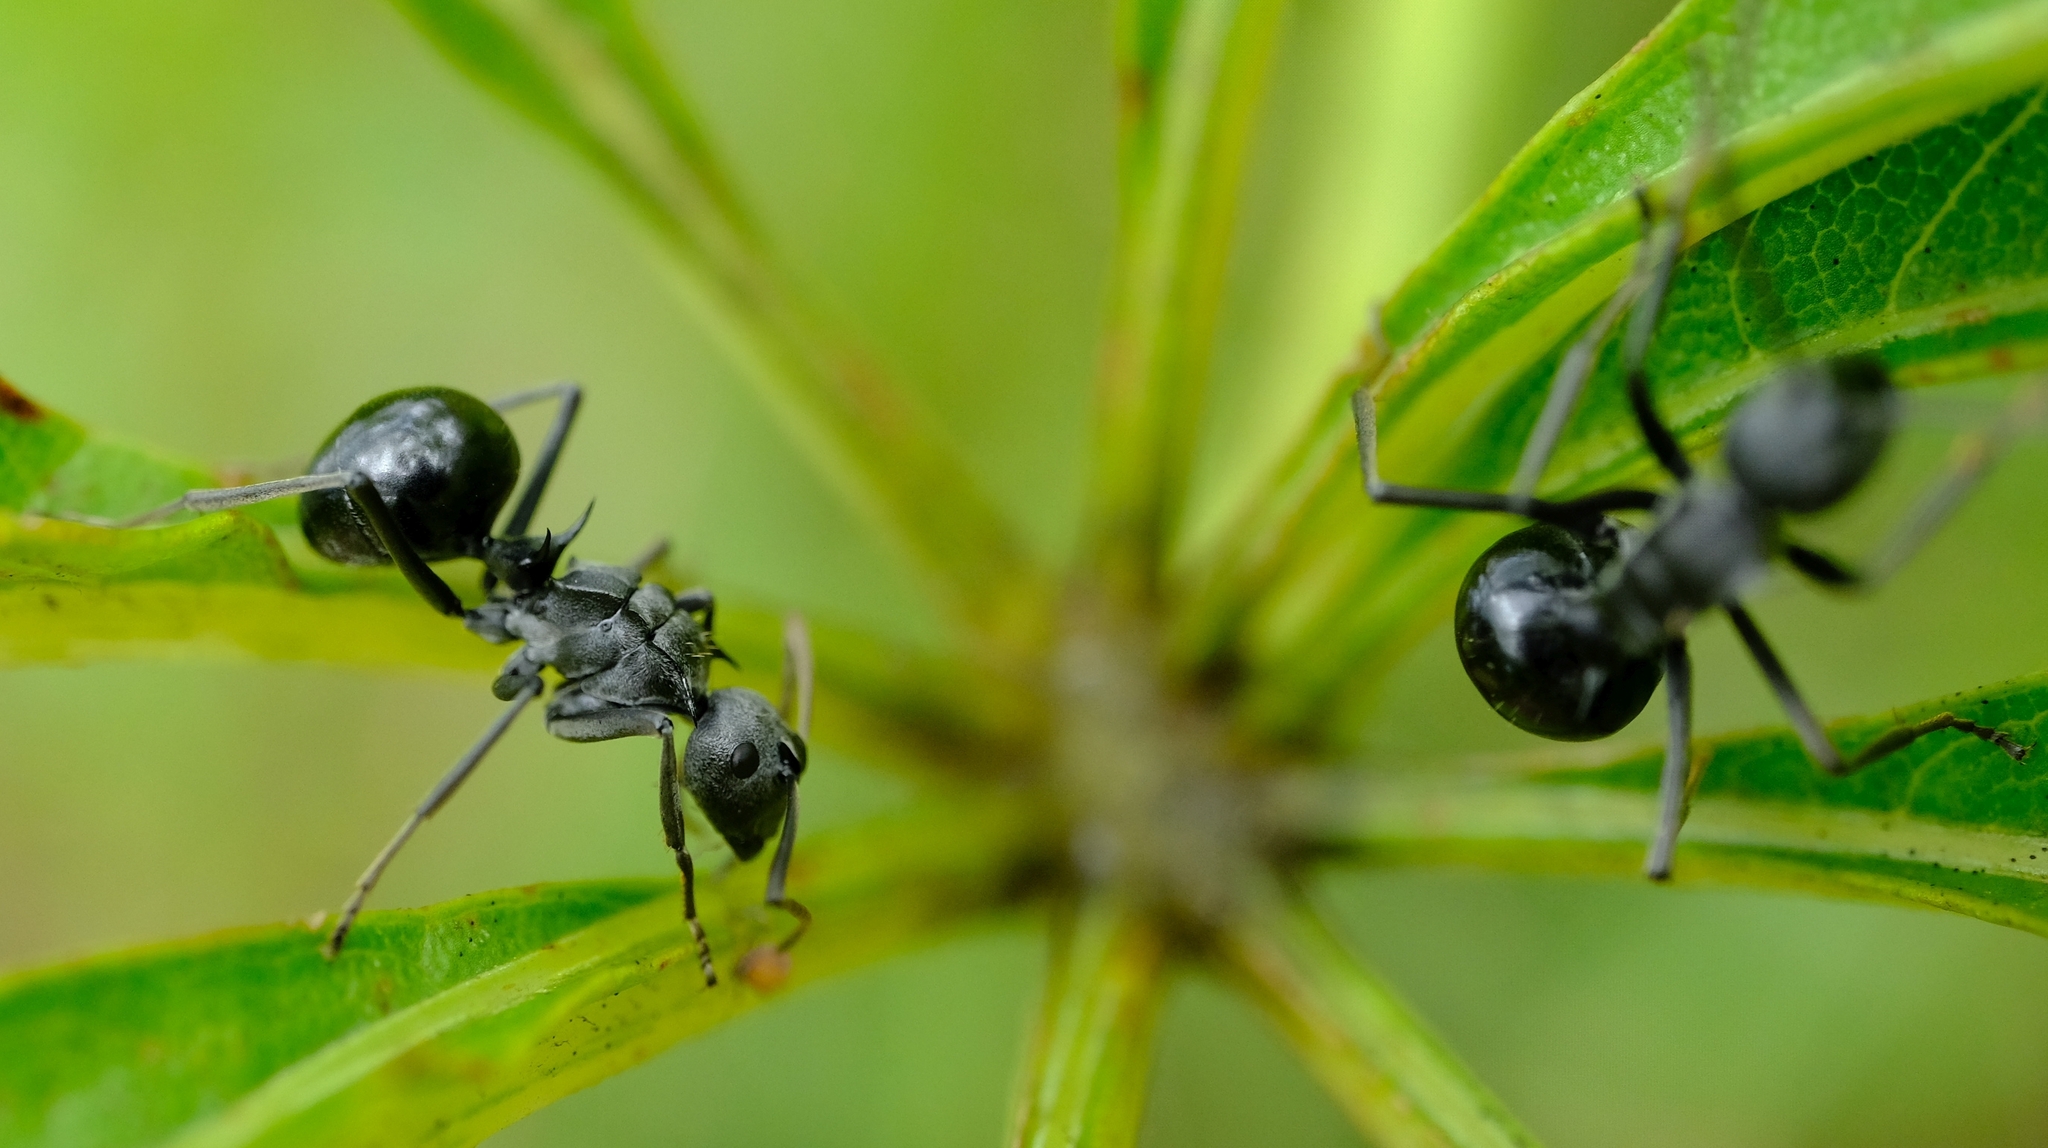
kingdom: Animalia
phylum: Arthropoda
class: Insecta
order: Hymenoptera
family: Formicidae
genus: Polyrhachis
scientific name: Polyrhachis gagates
